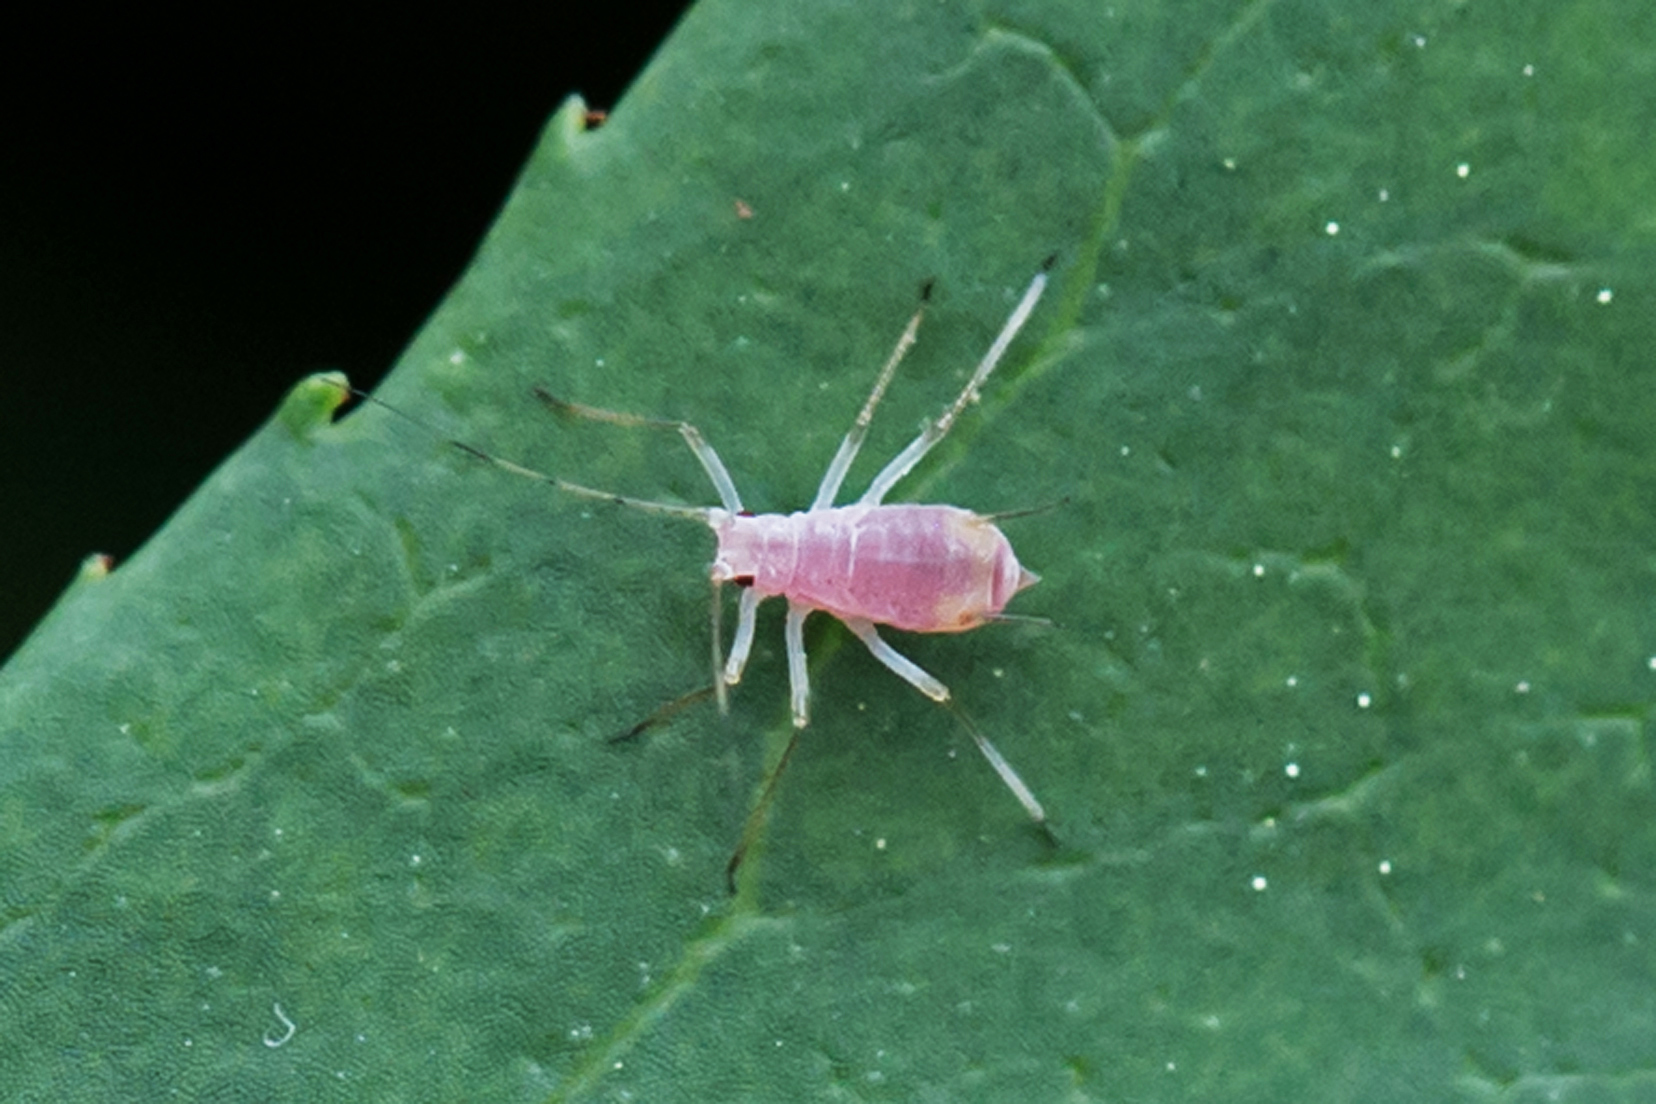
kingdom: Animalia
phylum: Arthropoda
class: Insecta
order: Hemiptera
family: Aphididae
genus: Macrosiphum
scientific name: Macrosiphum euphorbiae
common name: Potato aphid
